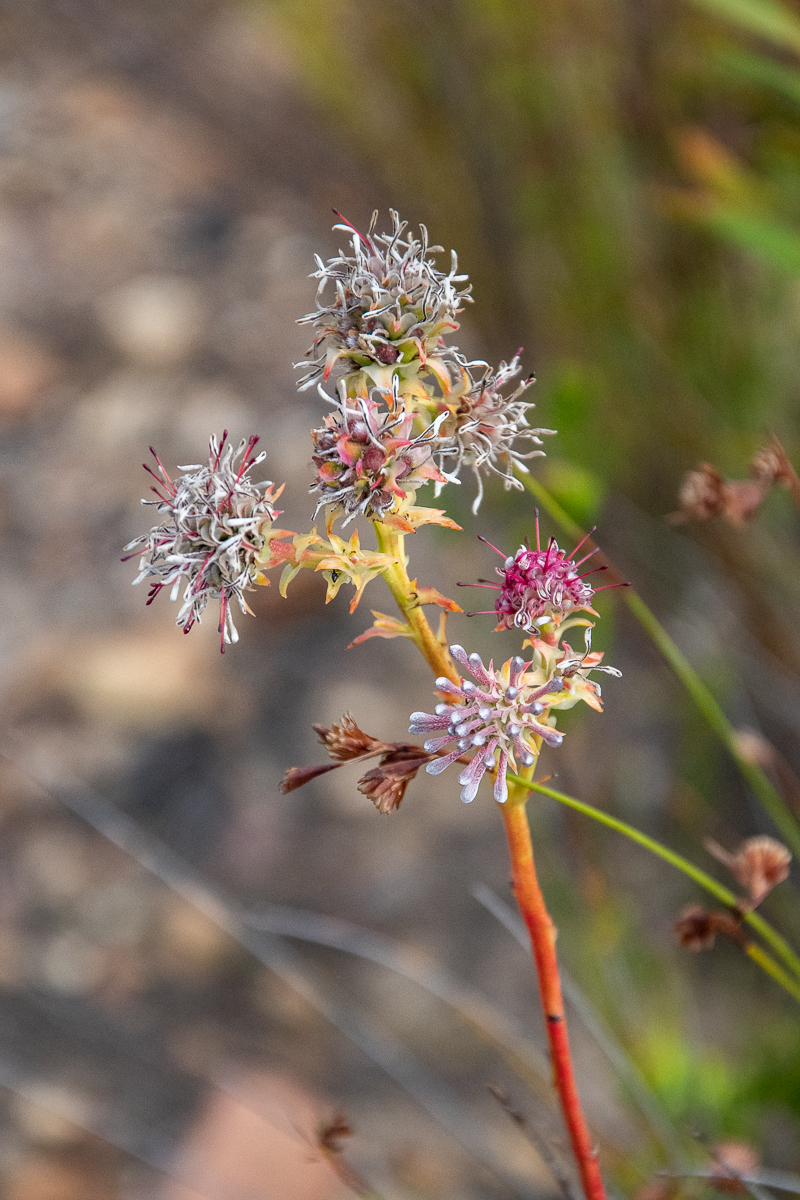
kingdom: Plantae
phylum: Tracheophyta
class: Magnoliopsida
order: Proteales
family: Proteaceae
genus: Serruria
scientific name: Serruria elongata
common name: Long-stalk spiderhead
